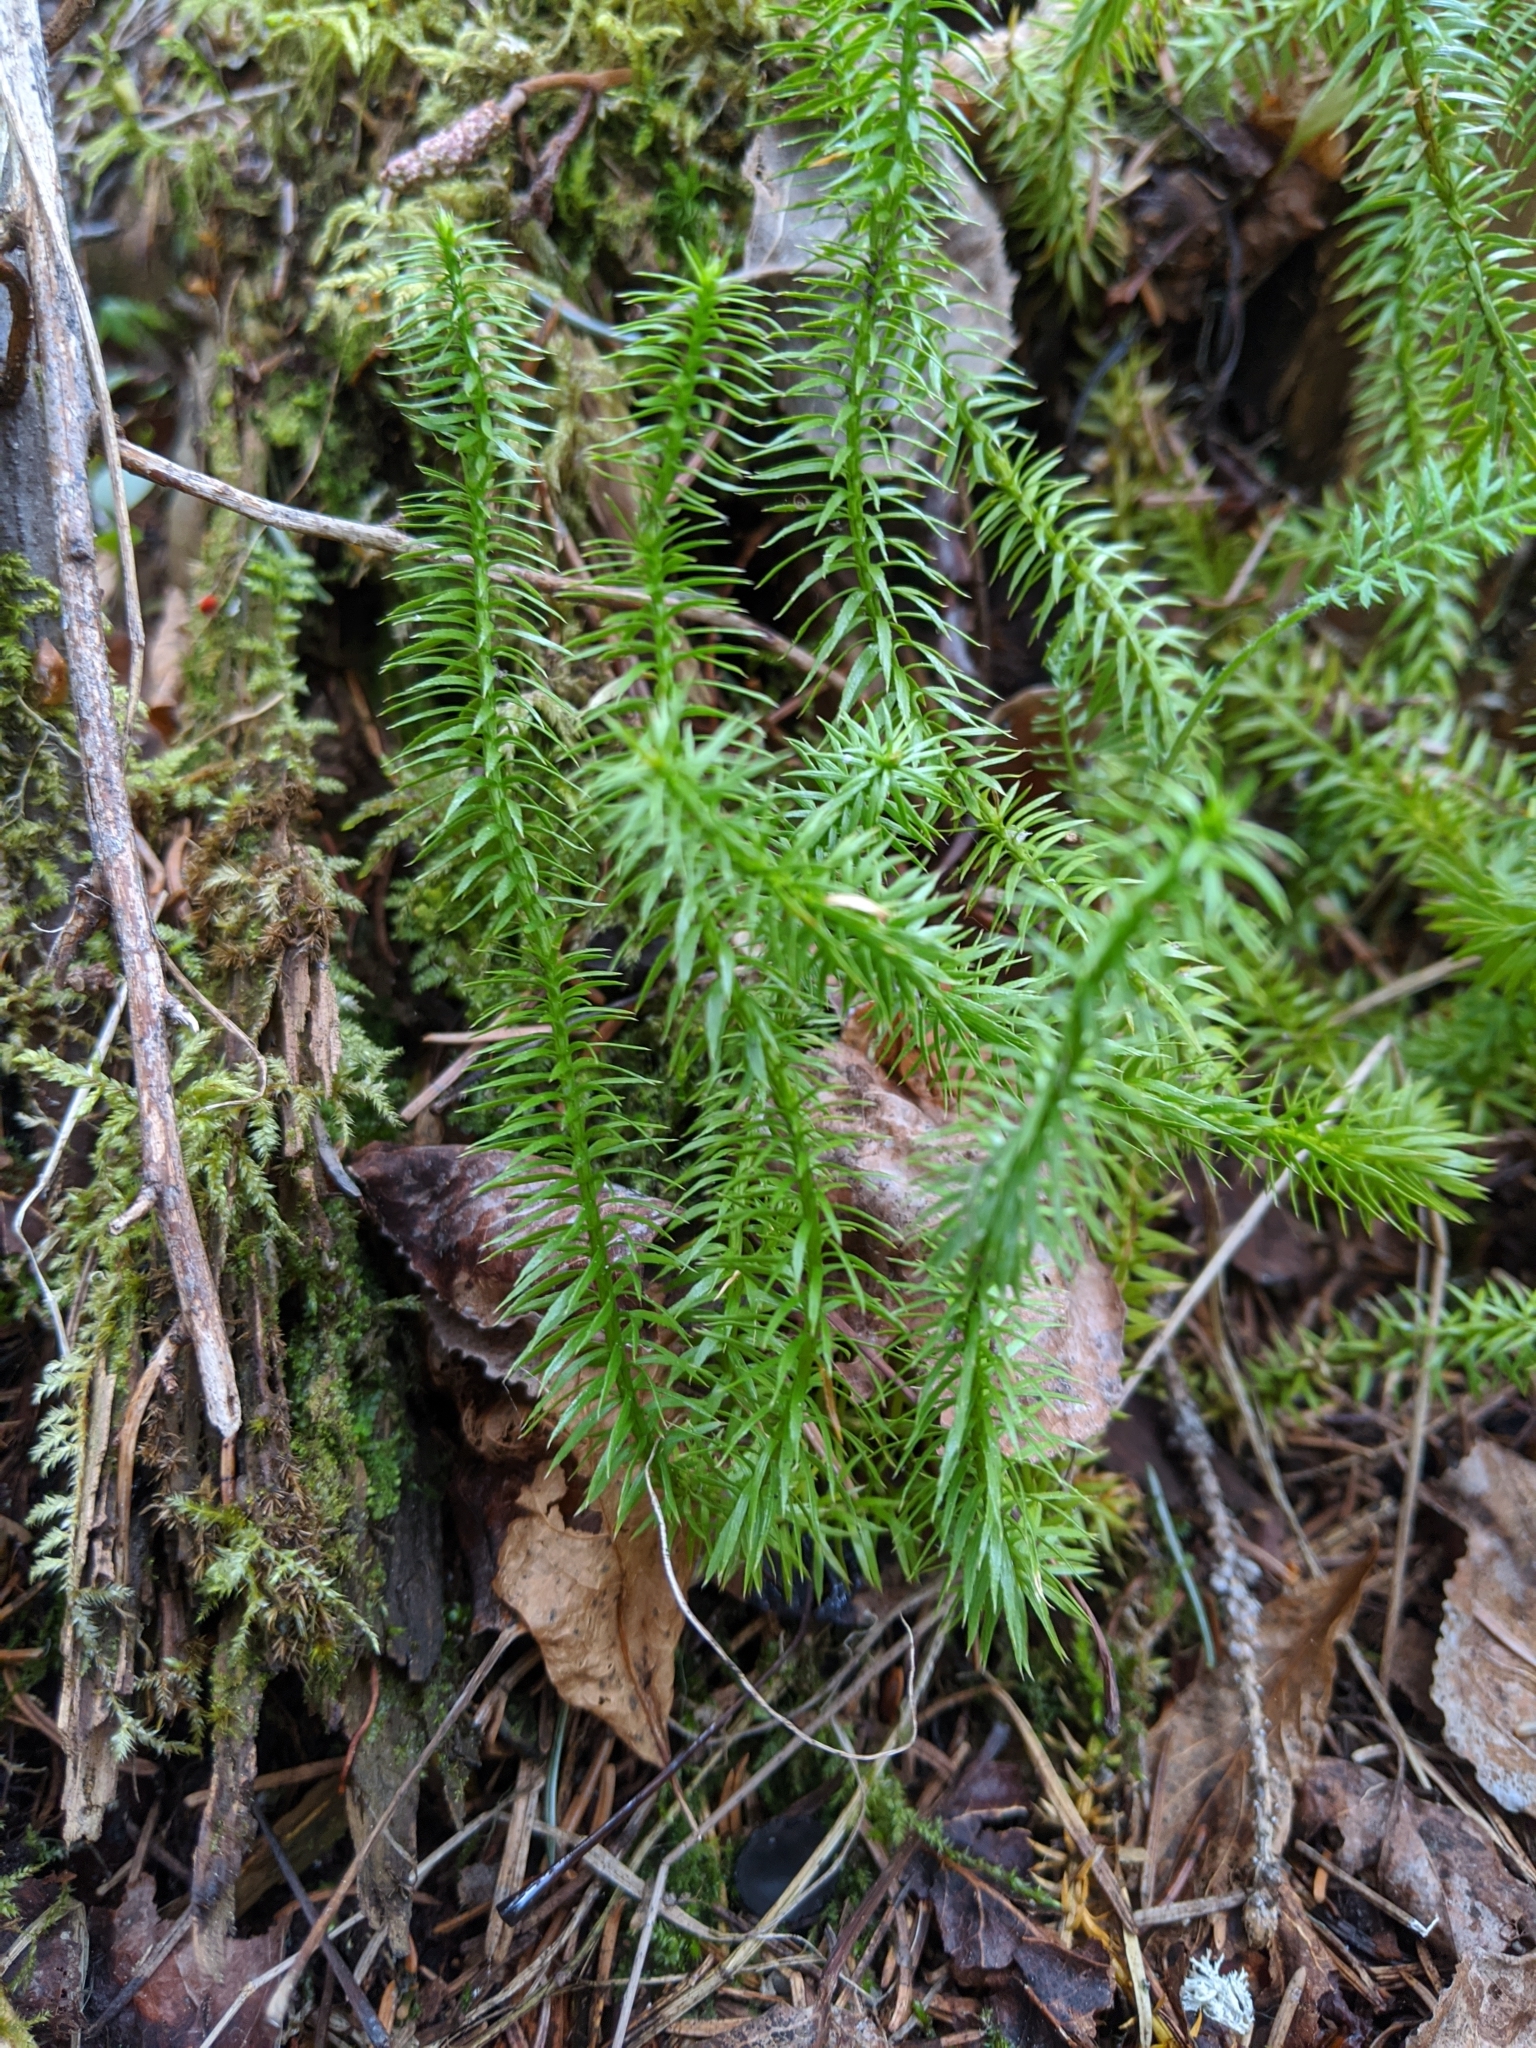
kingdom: Plantae
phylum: Tracheophyta
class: Lycopodiopsida
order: Lycopodiales
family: Lycopodiaceae
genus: Spinulum
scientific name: Spinulum annotinum
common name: Interrupted club-moss
